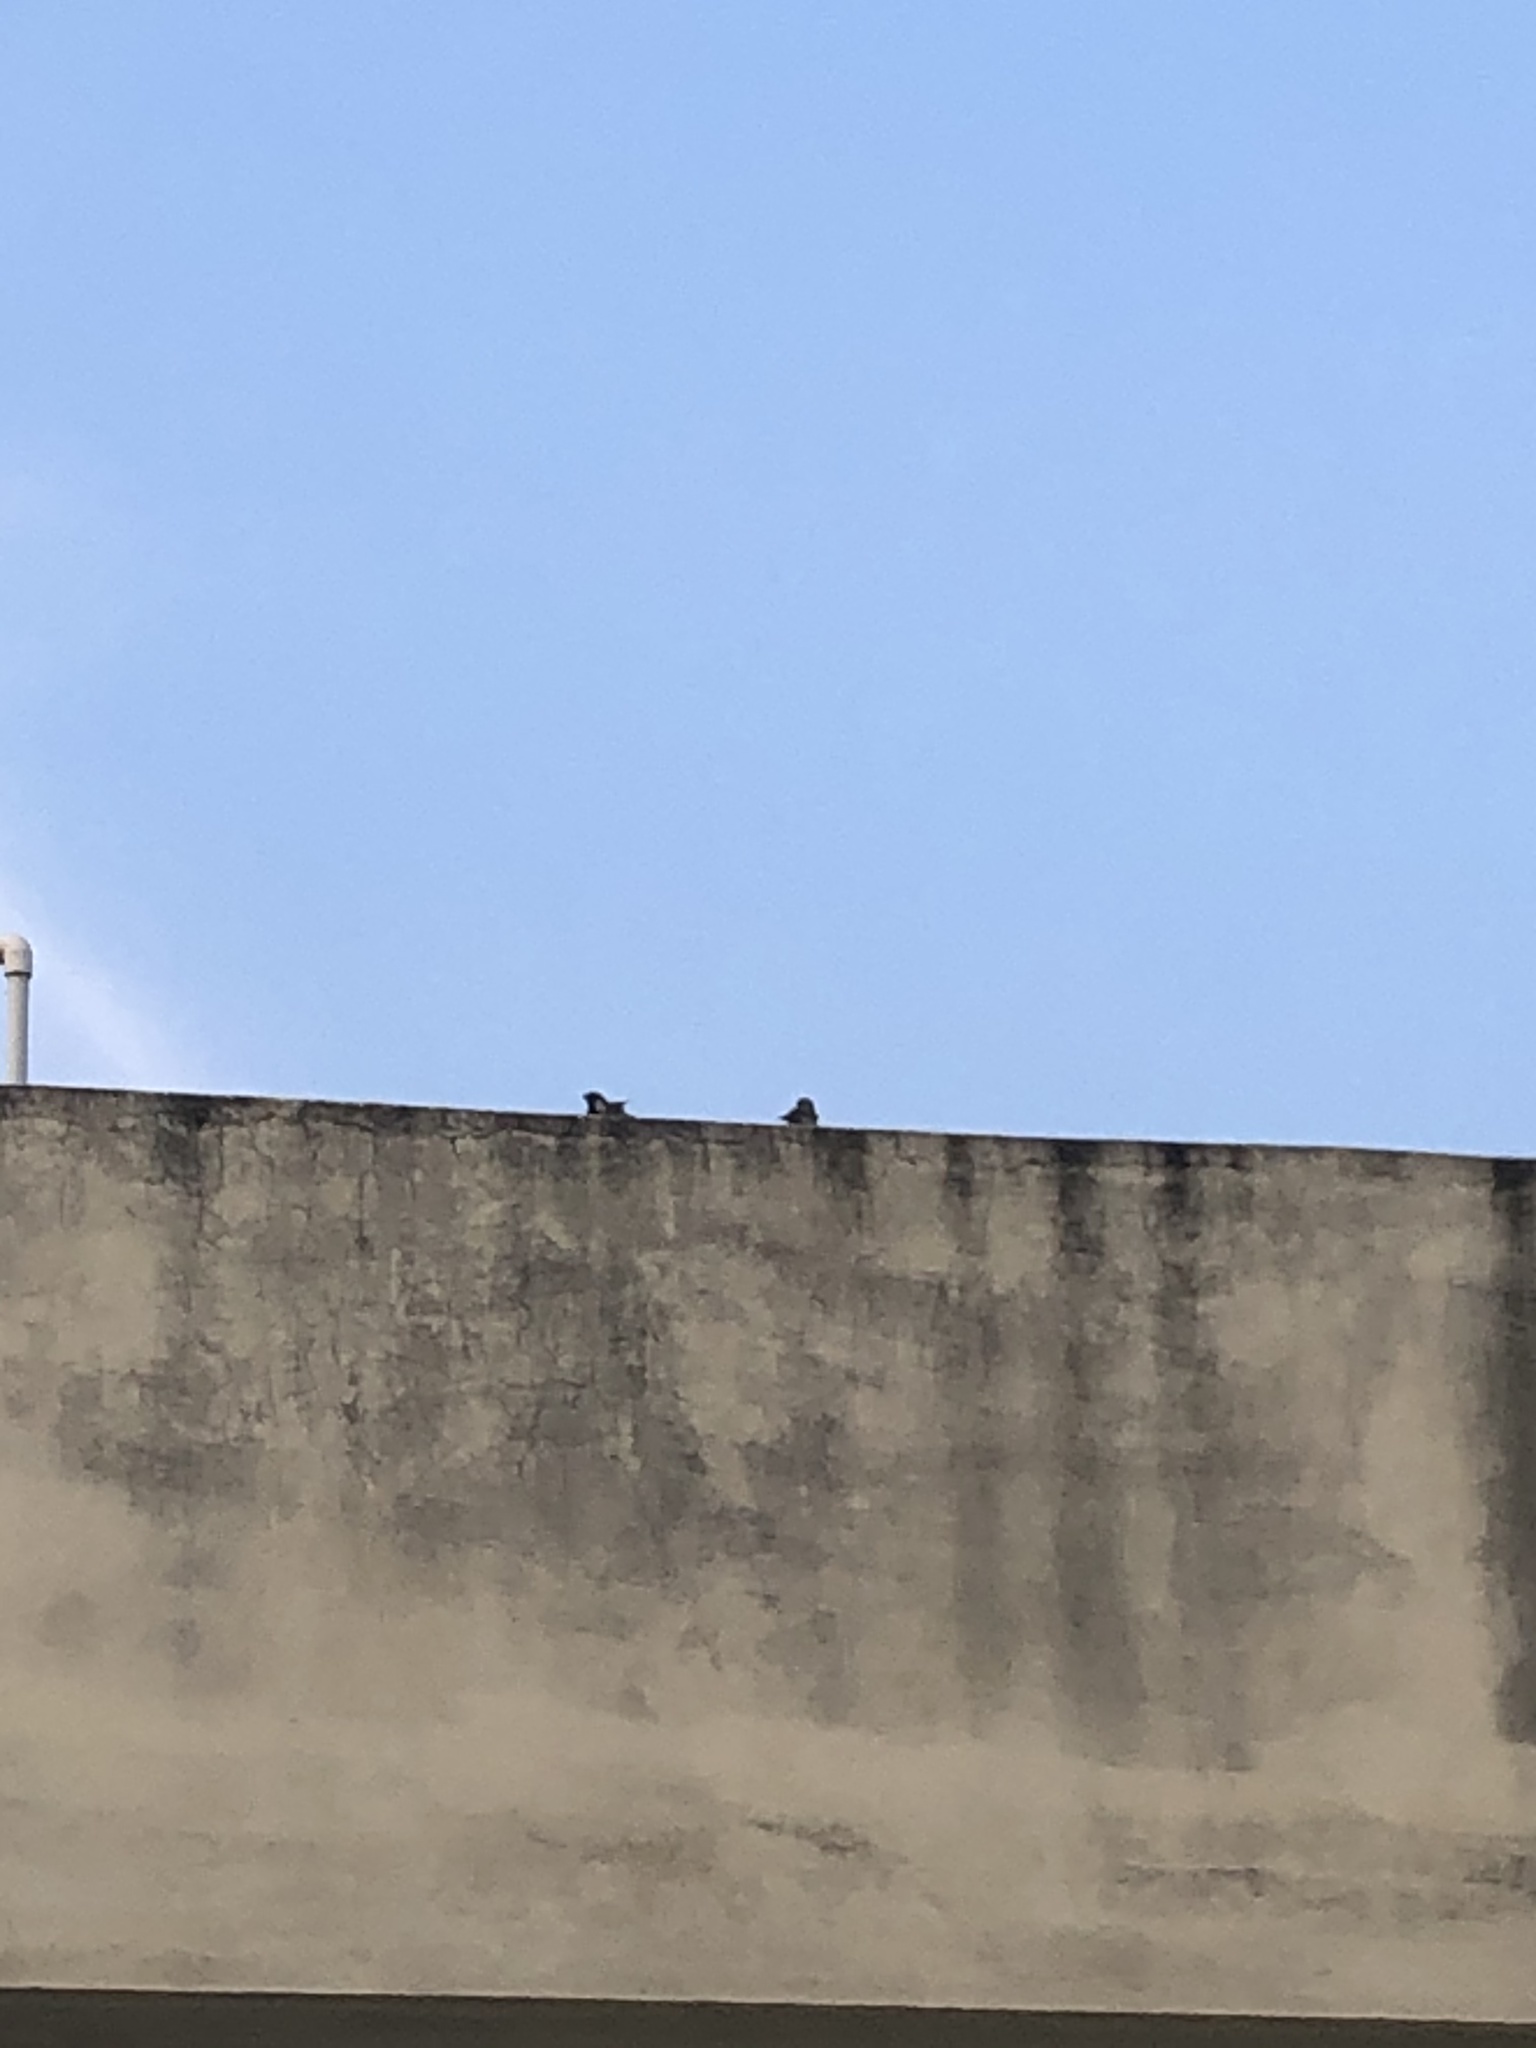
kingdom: Animalia
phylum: Chordata
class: Aves
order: Passeriformes
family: Passeridae
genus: Passer
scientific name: Passer domesticus
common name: House sparrow
